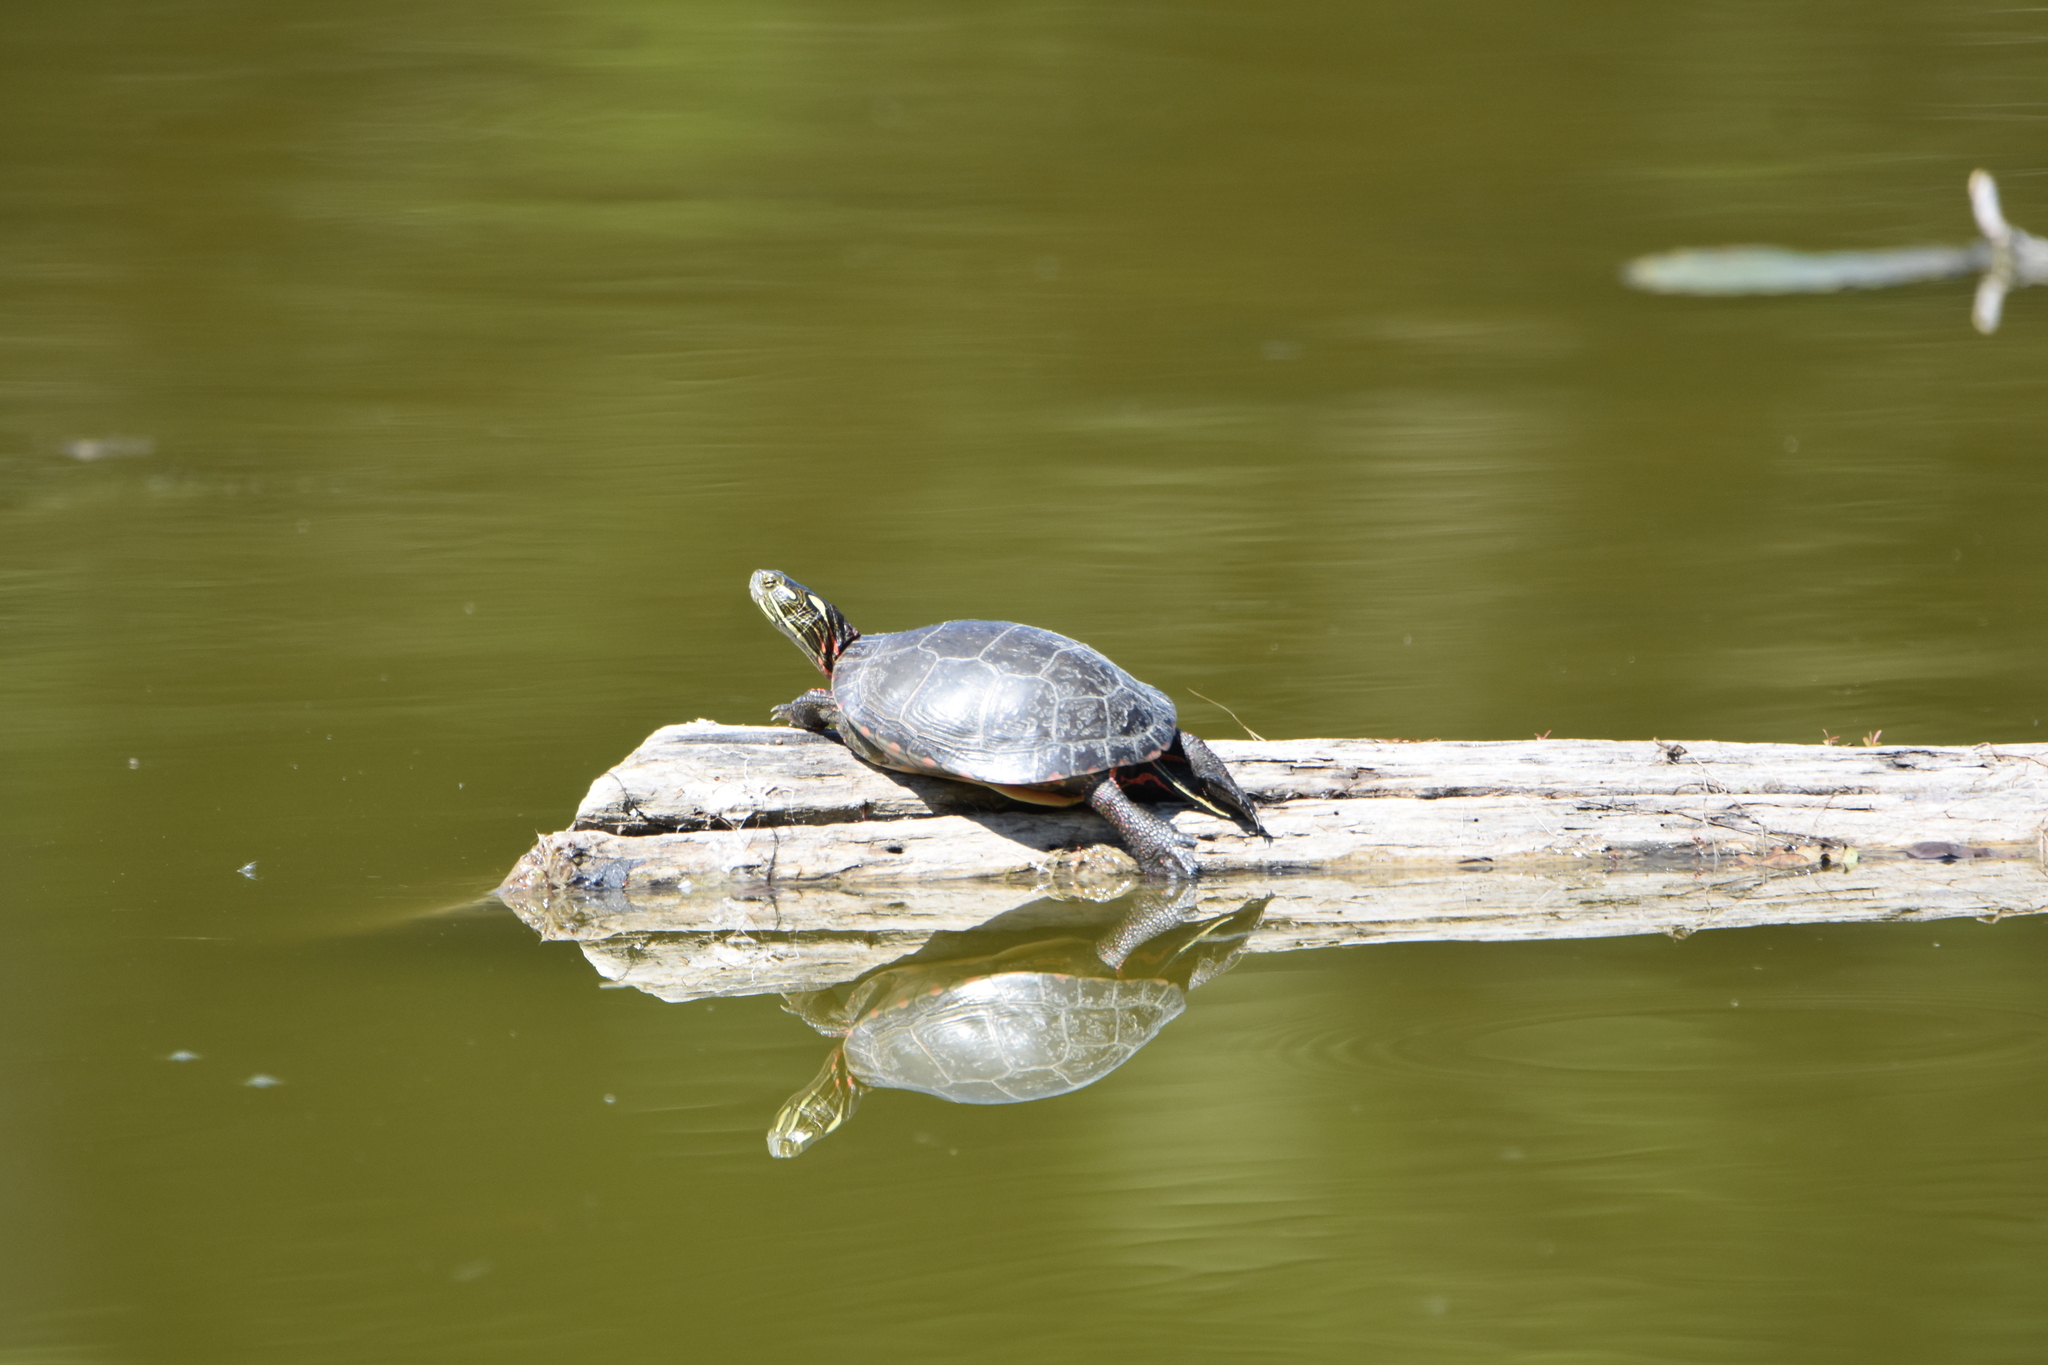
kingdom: Animalia
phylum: Chordata
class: Testudines
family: Emydidae
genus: Chrysemys
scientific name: Chrysemys picta
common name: Painted turtle
